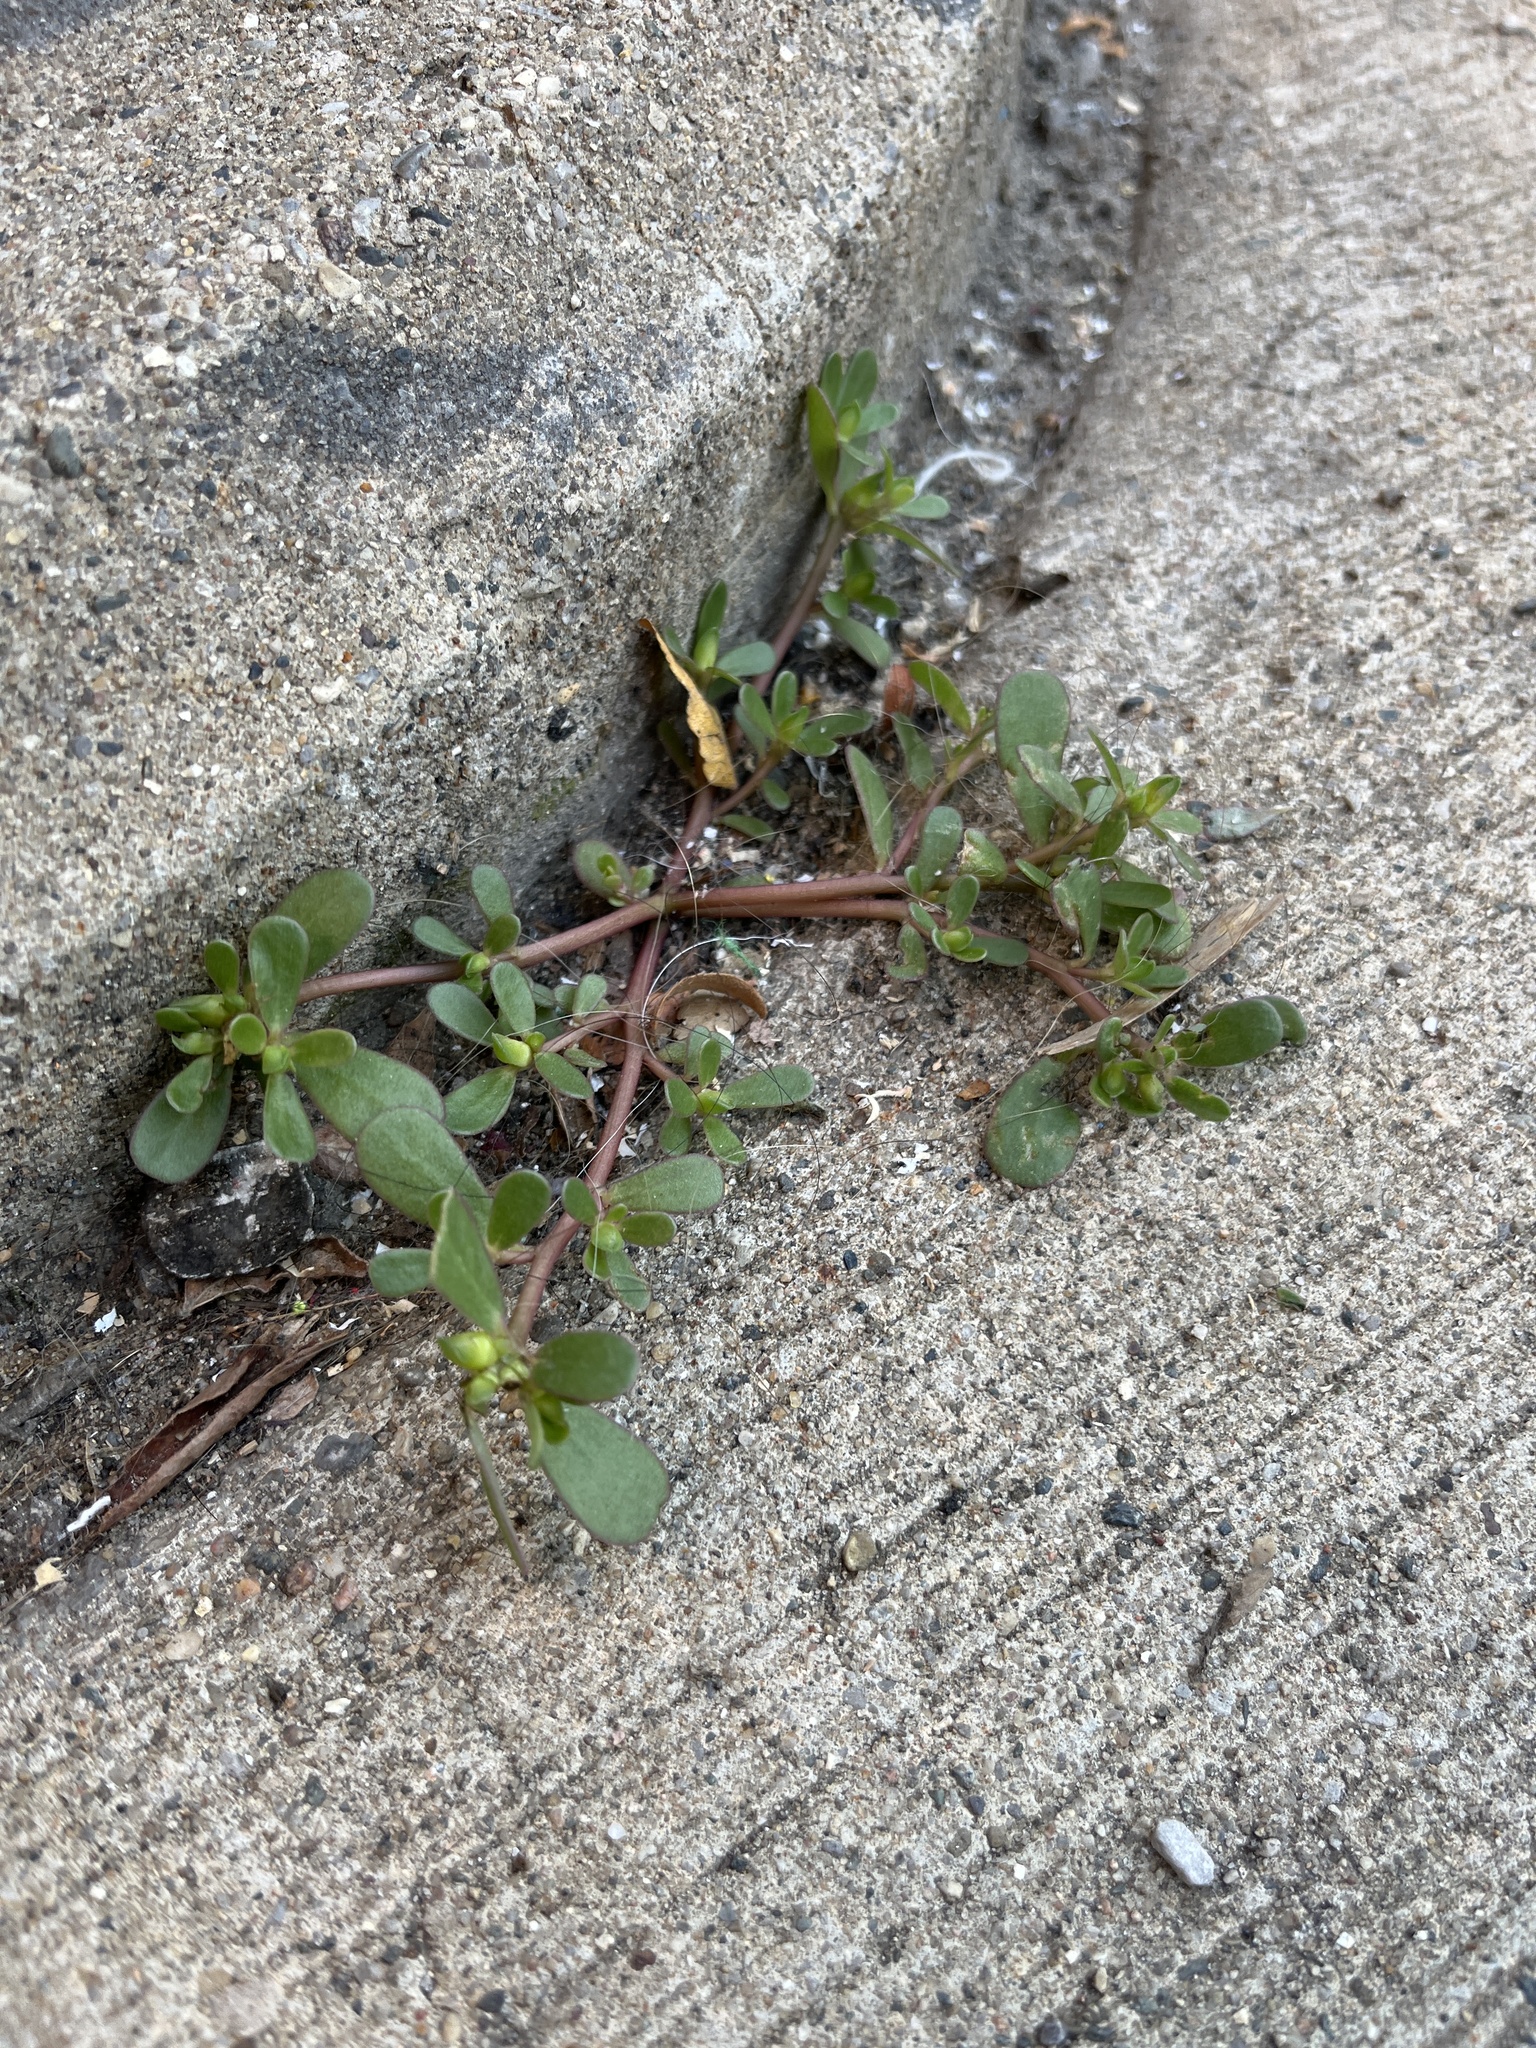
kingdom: Plantae
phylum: Tracheophyta
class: Magnoliopsida
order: Caryophyllales
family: Portulacaceae
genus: Portulaca
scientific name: Portulaca oleracea
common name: Common purslane
